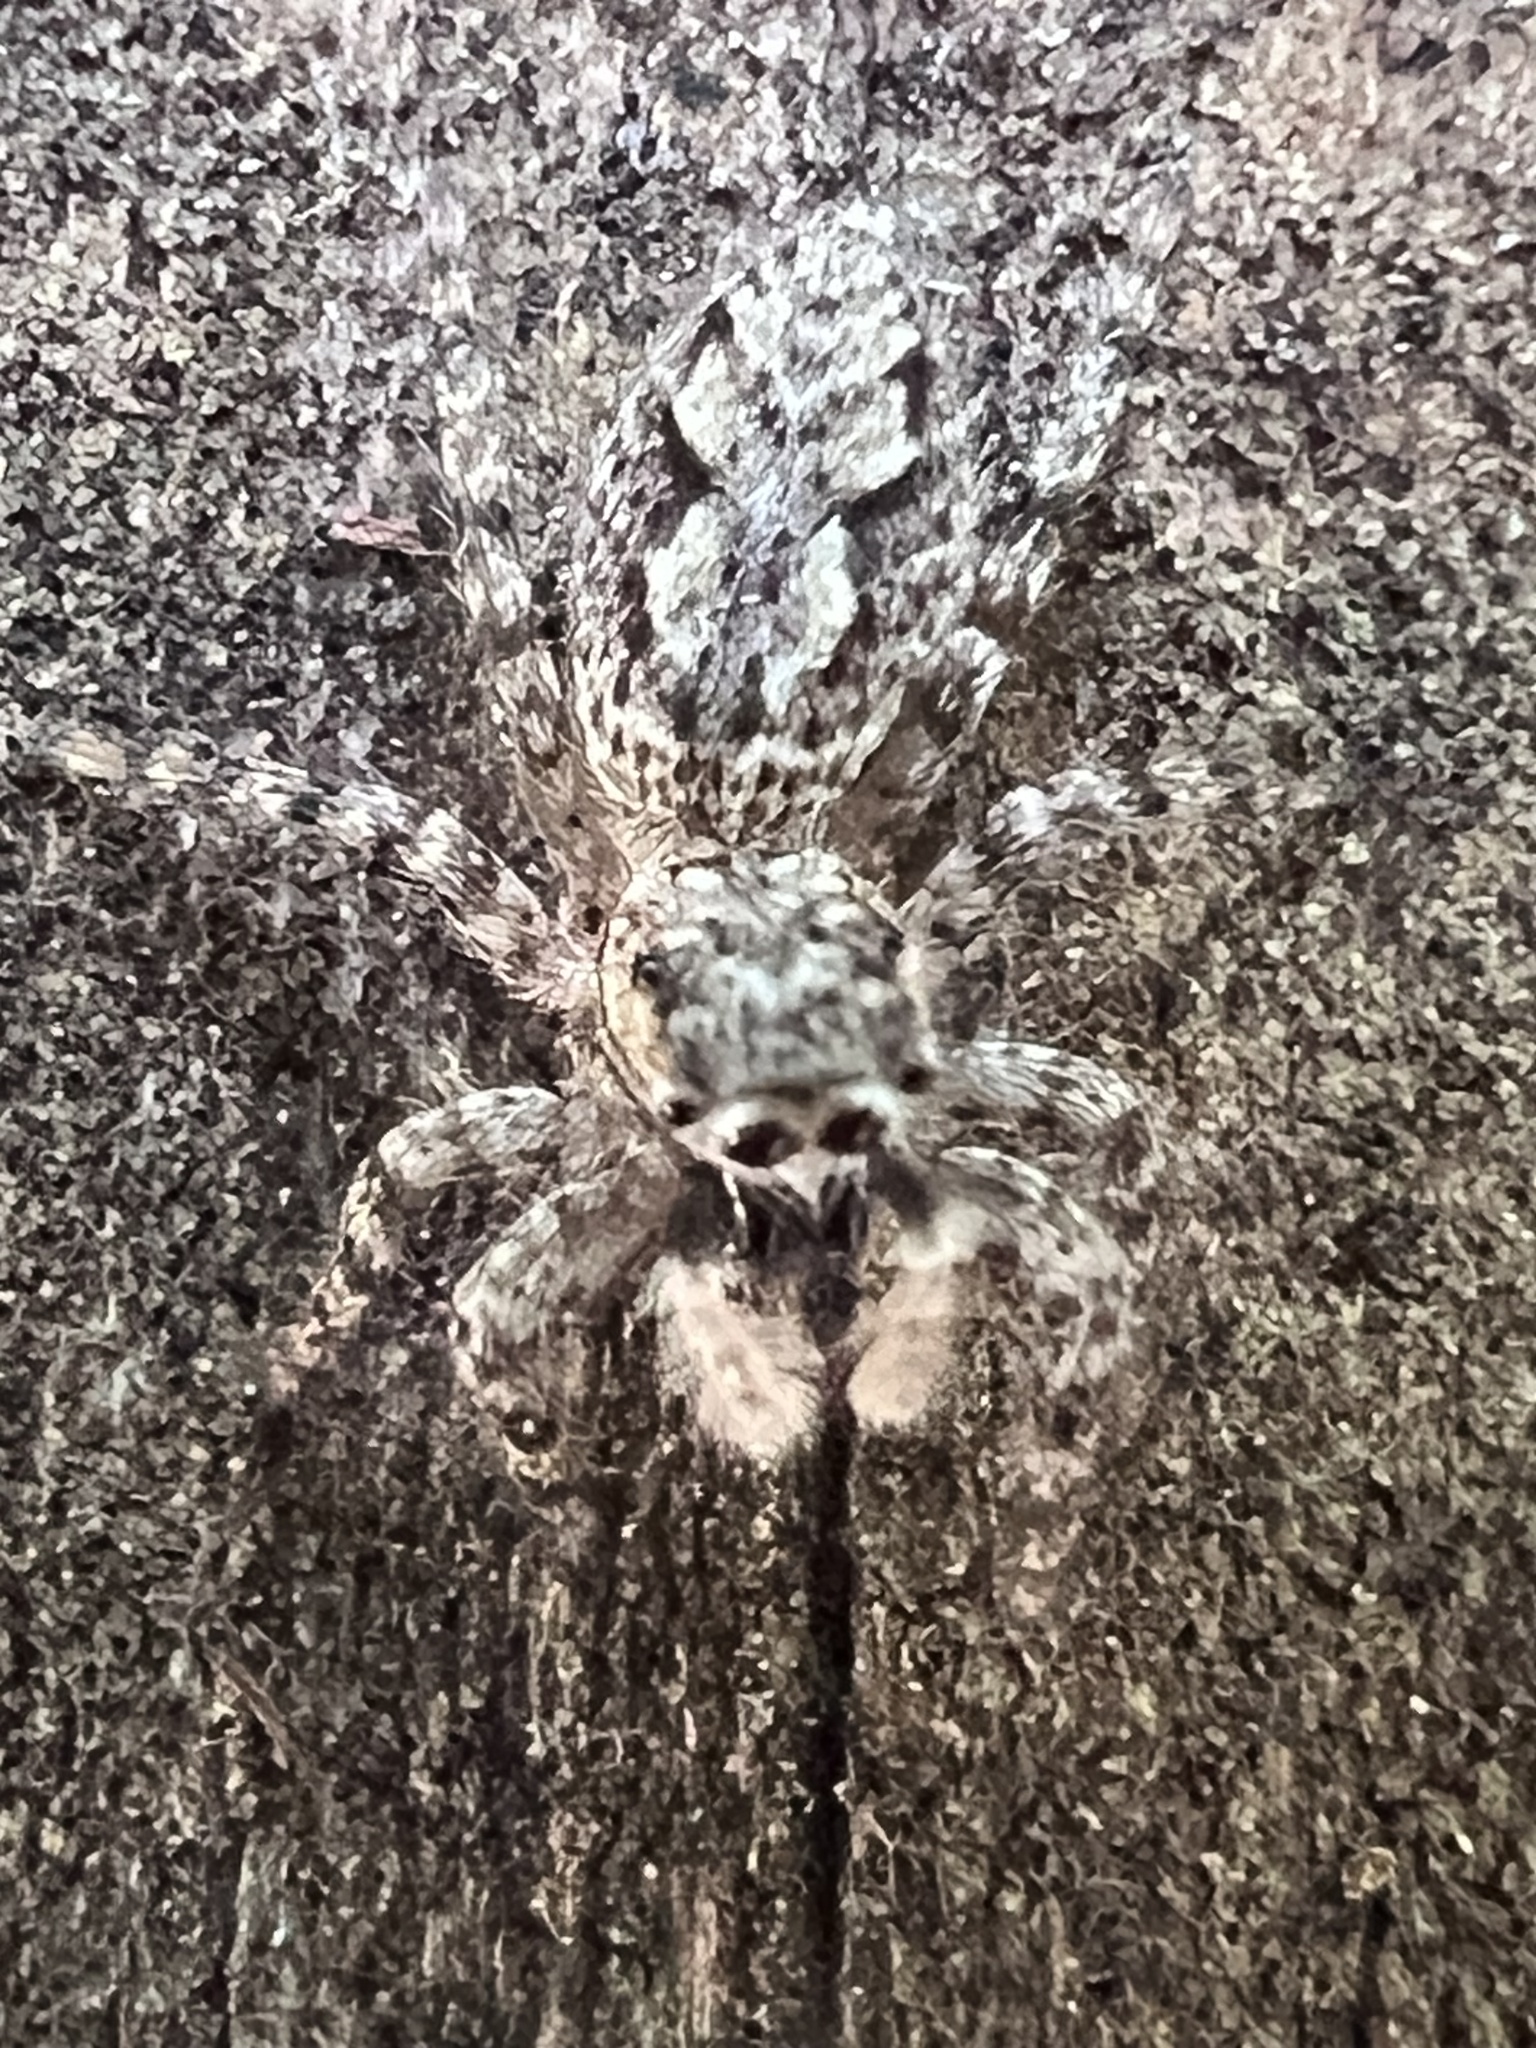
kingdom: Animalia
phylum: Arthropoda
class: Arachnida
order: Araneae
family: Salticidae
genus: Platycryptus
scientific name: Platycryptus undatus
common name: Tan jumping spider
